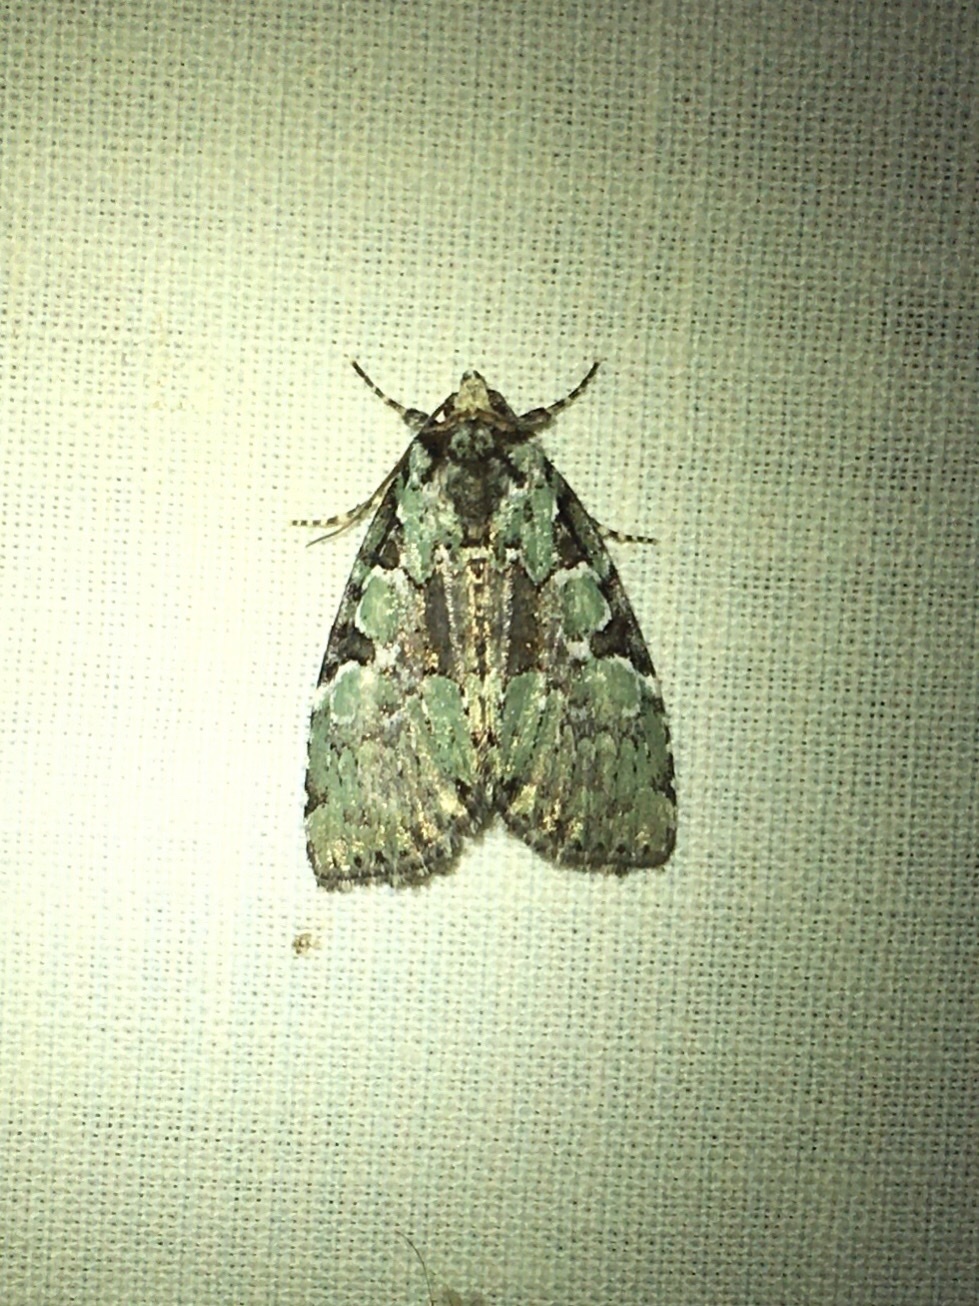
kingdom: Animalia
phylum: Arthropoda
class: Insecta
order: Lepidoptera
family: Noctuidae
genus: Leuconycta
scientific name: Leuconycta lepidula
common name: Marbled-green leuconycta moth
